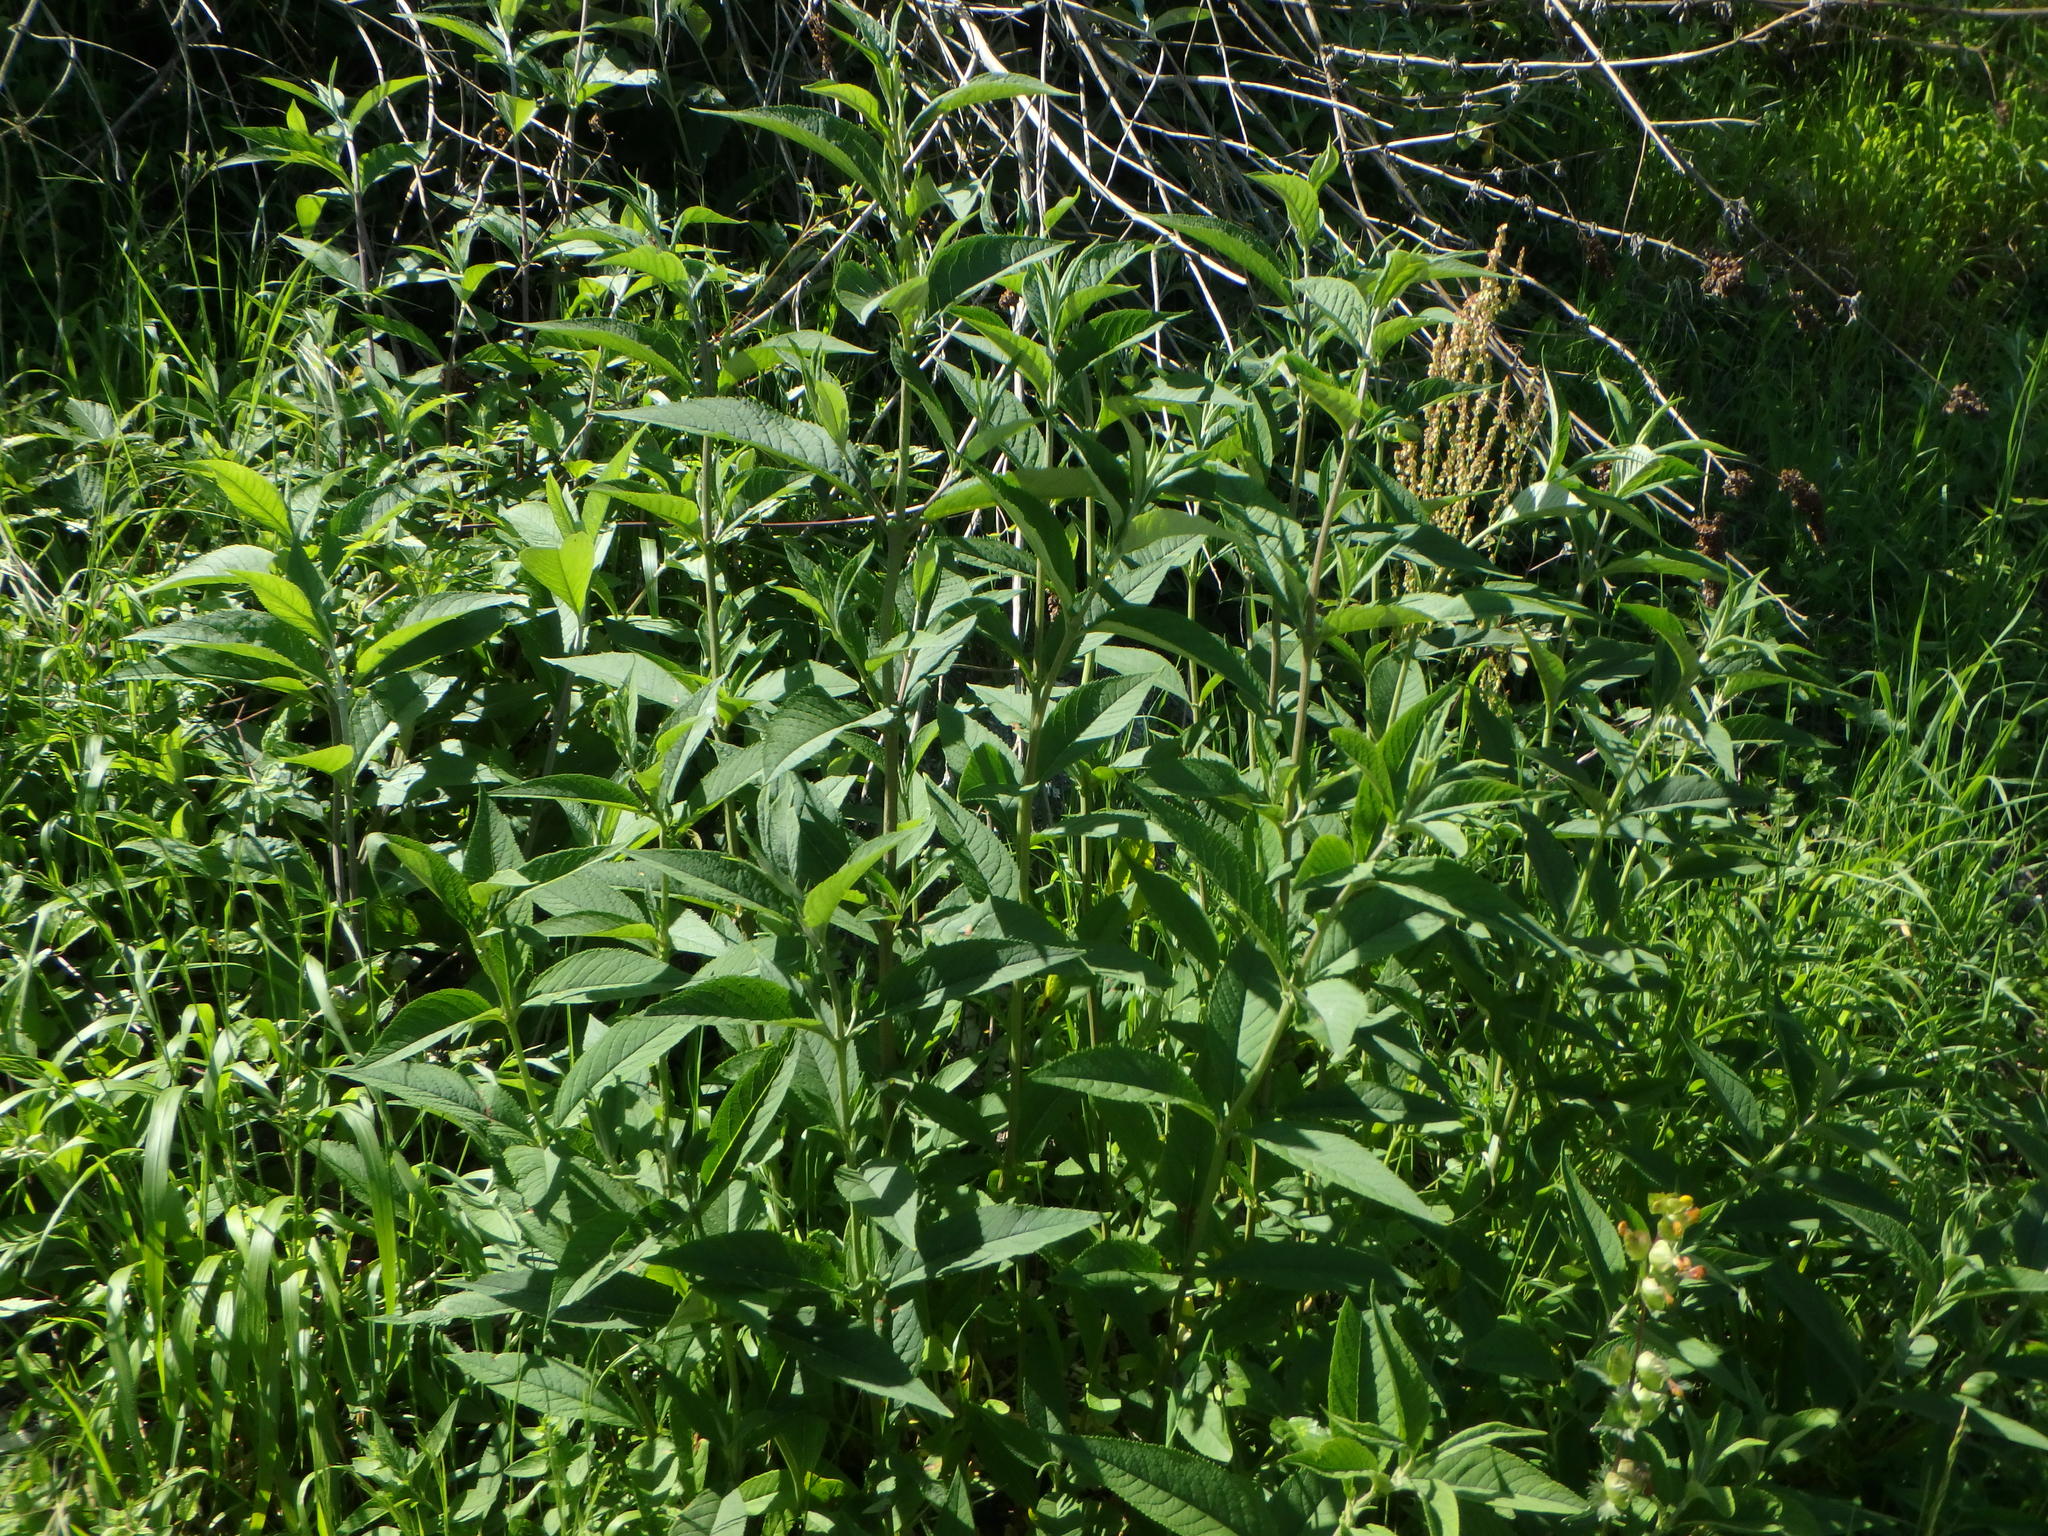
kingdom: Plantae
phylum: Tracheophyta
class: Magnoliopsida
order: Lamiales
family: Scrophulariaceae
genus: Buddleja
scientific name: Buddleja davidii
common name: Butterfly-bush
